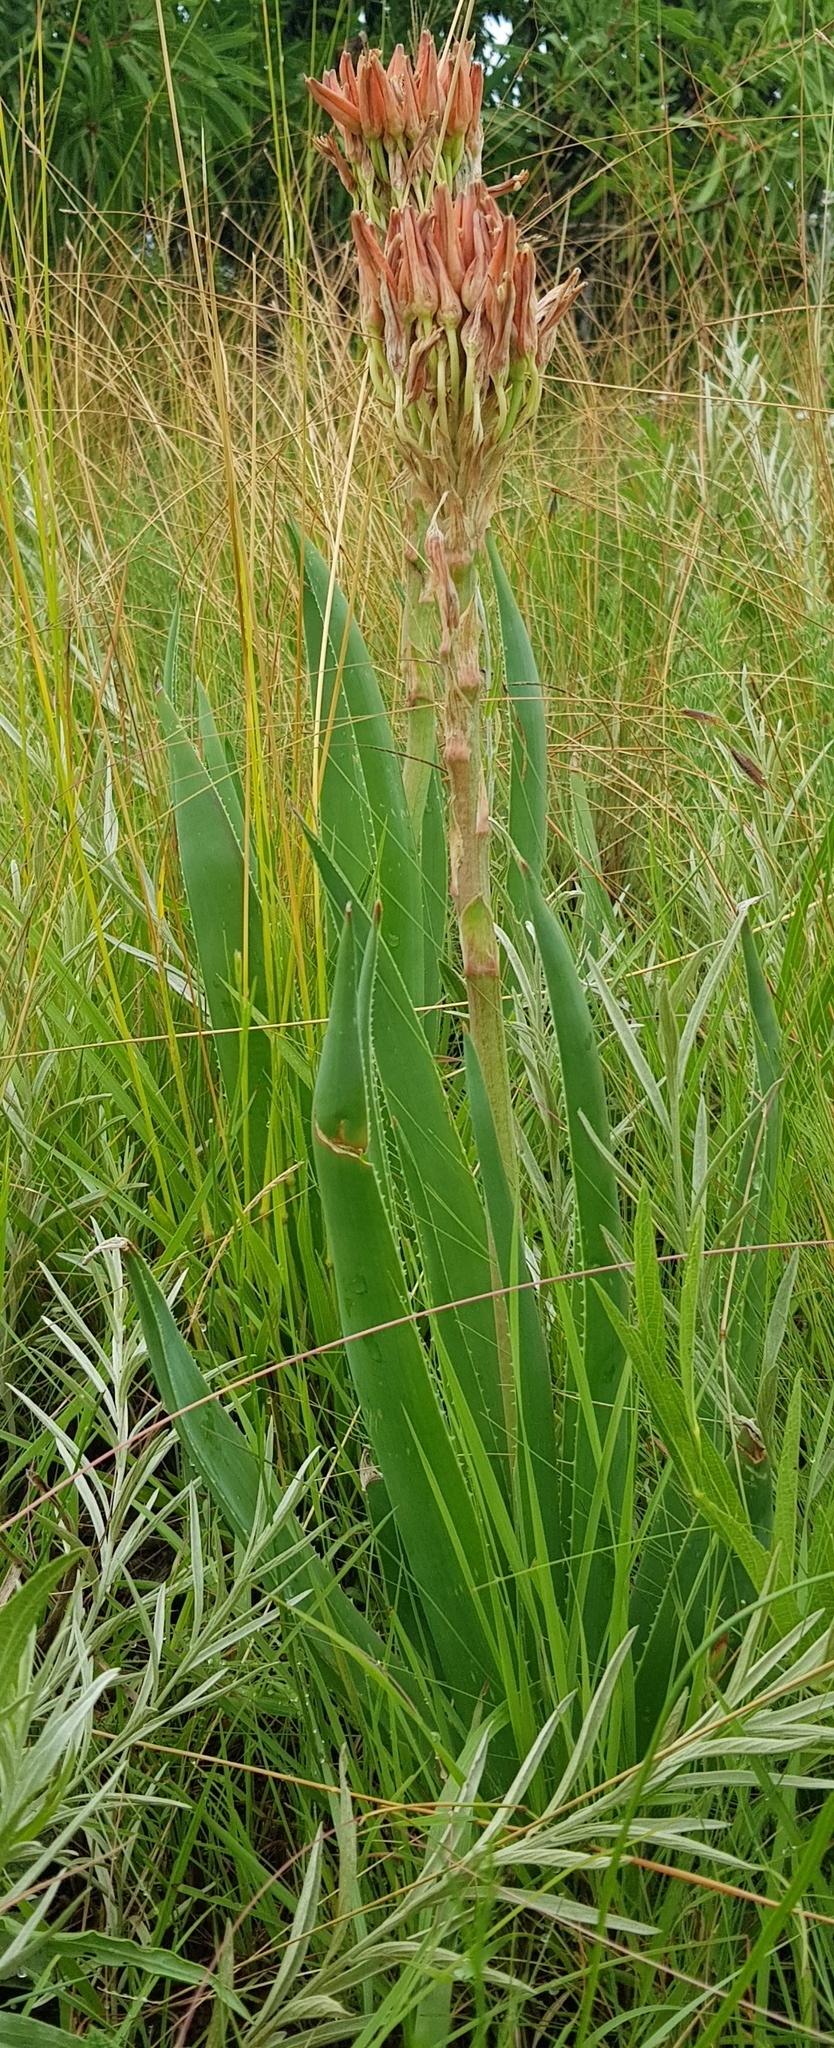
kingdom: Plantae
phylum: Tracheophyta
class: Liliopsida
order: Asparagales
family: Asphodelaceae
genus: Aloe
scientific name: Aloe ecklonis
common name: Ecklon's aloe
